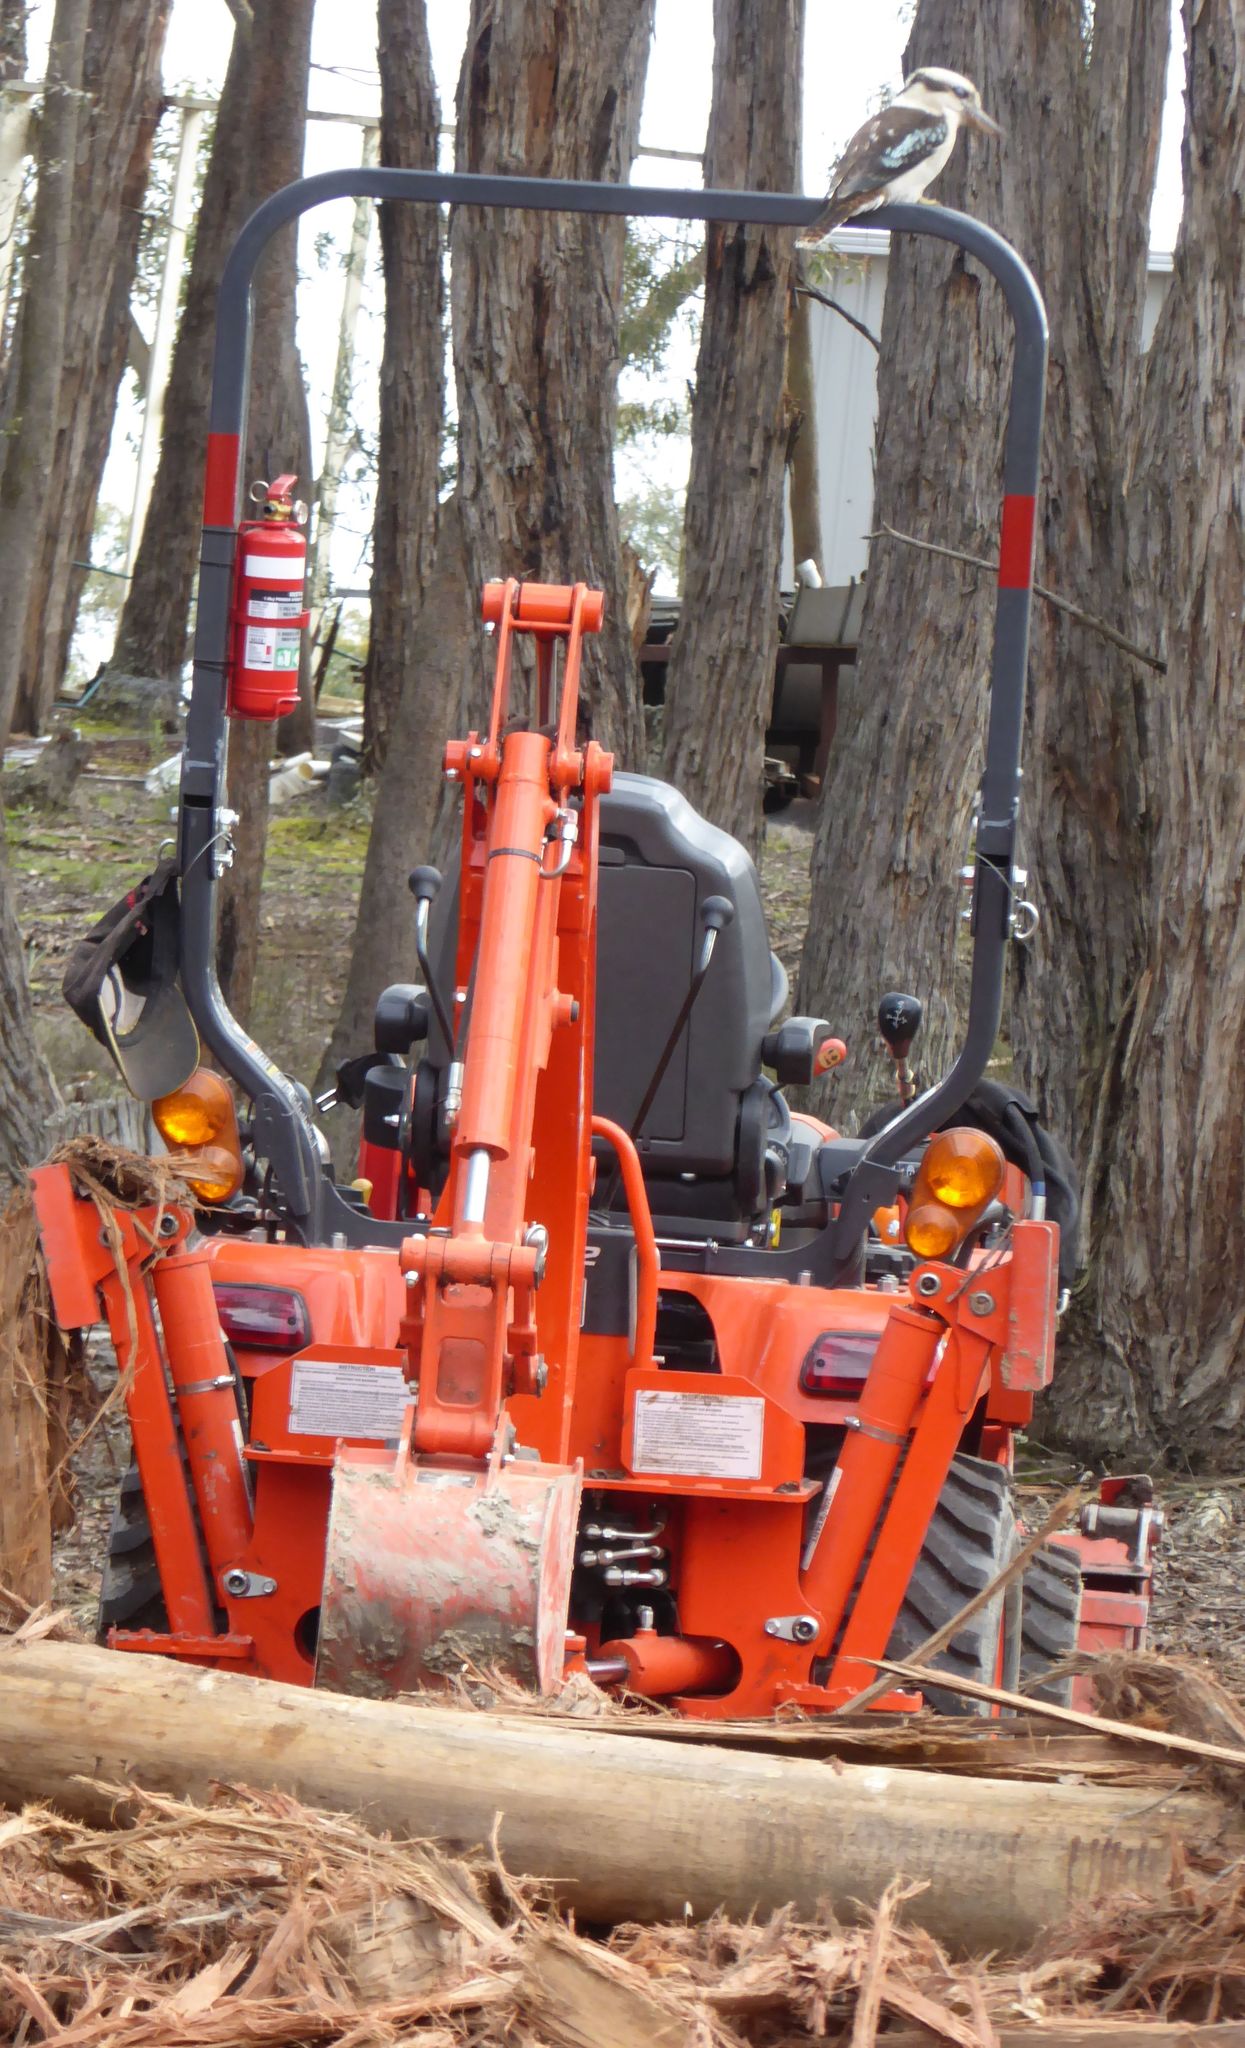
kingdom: Animalia
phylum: Chordata
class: Aves
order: Coraciiformes
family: Alcedinidae
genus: Dacelo
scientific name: Dacelo novaeguineae
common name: Laughing kookaburra
